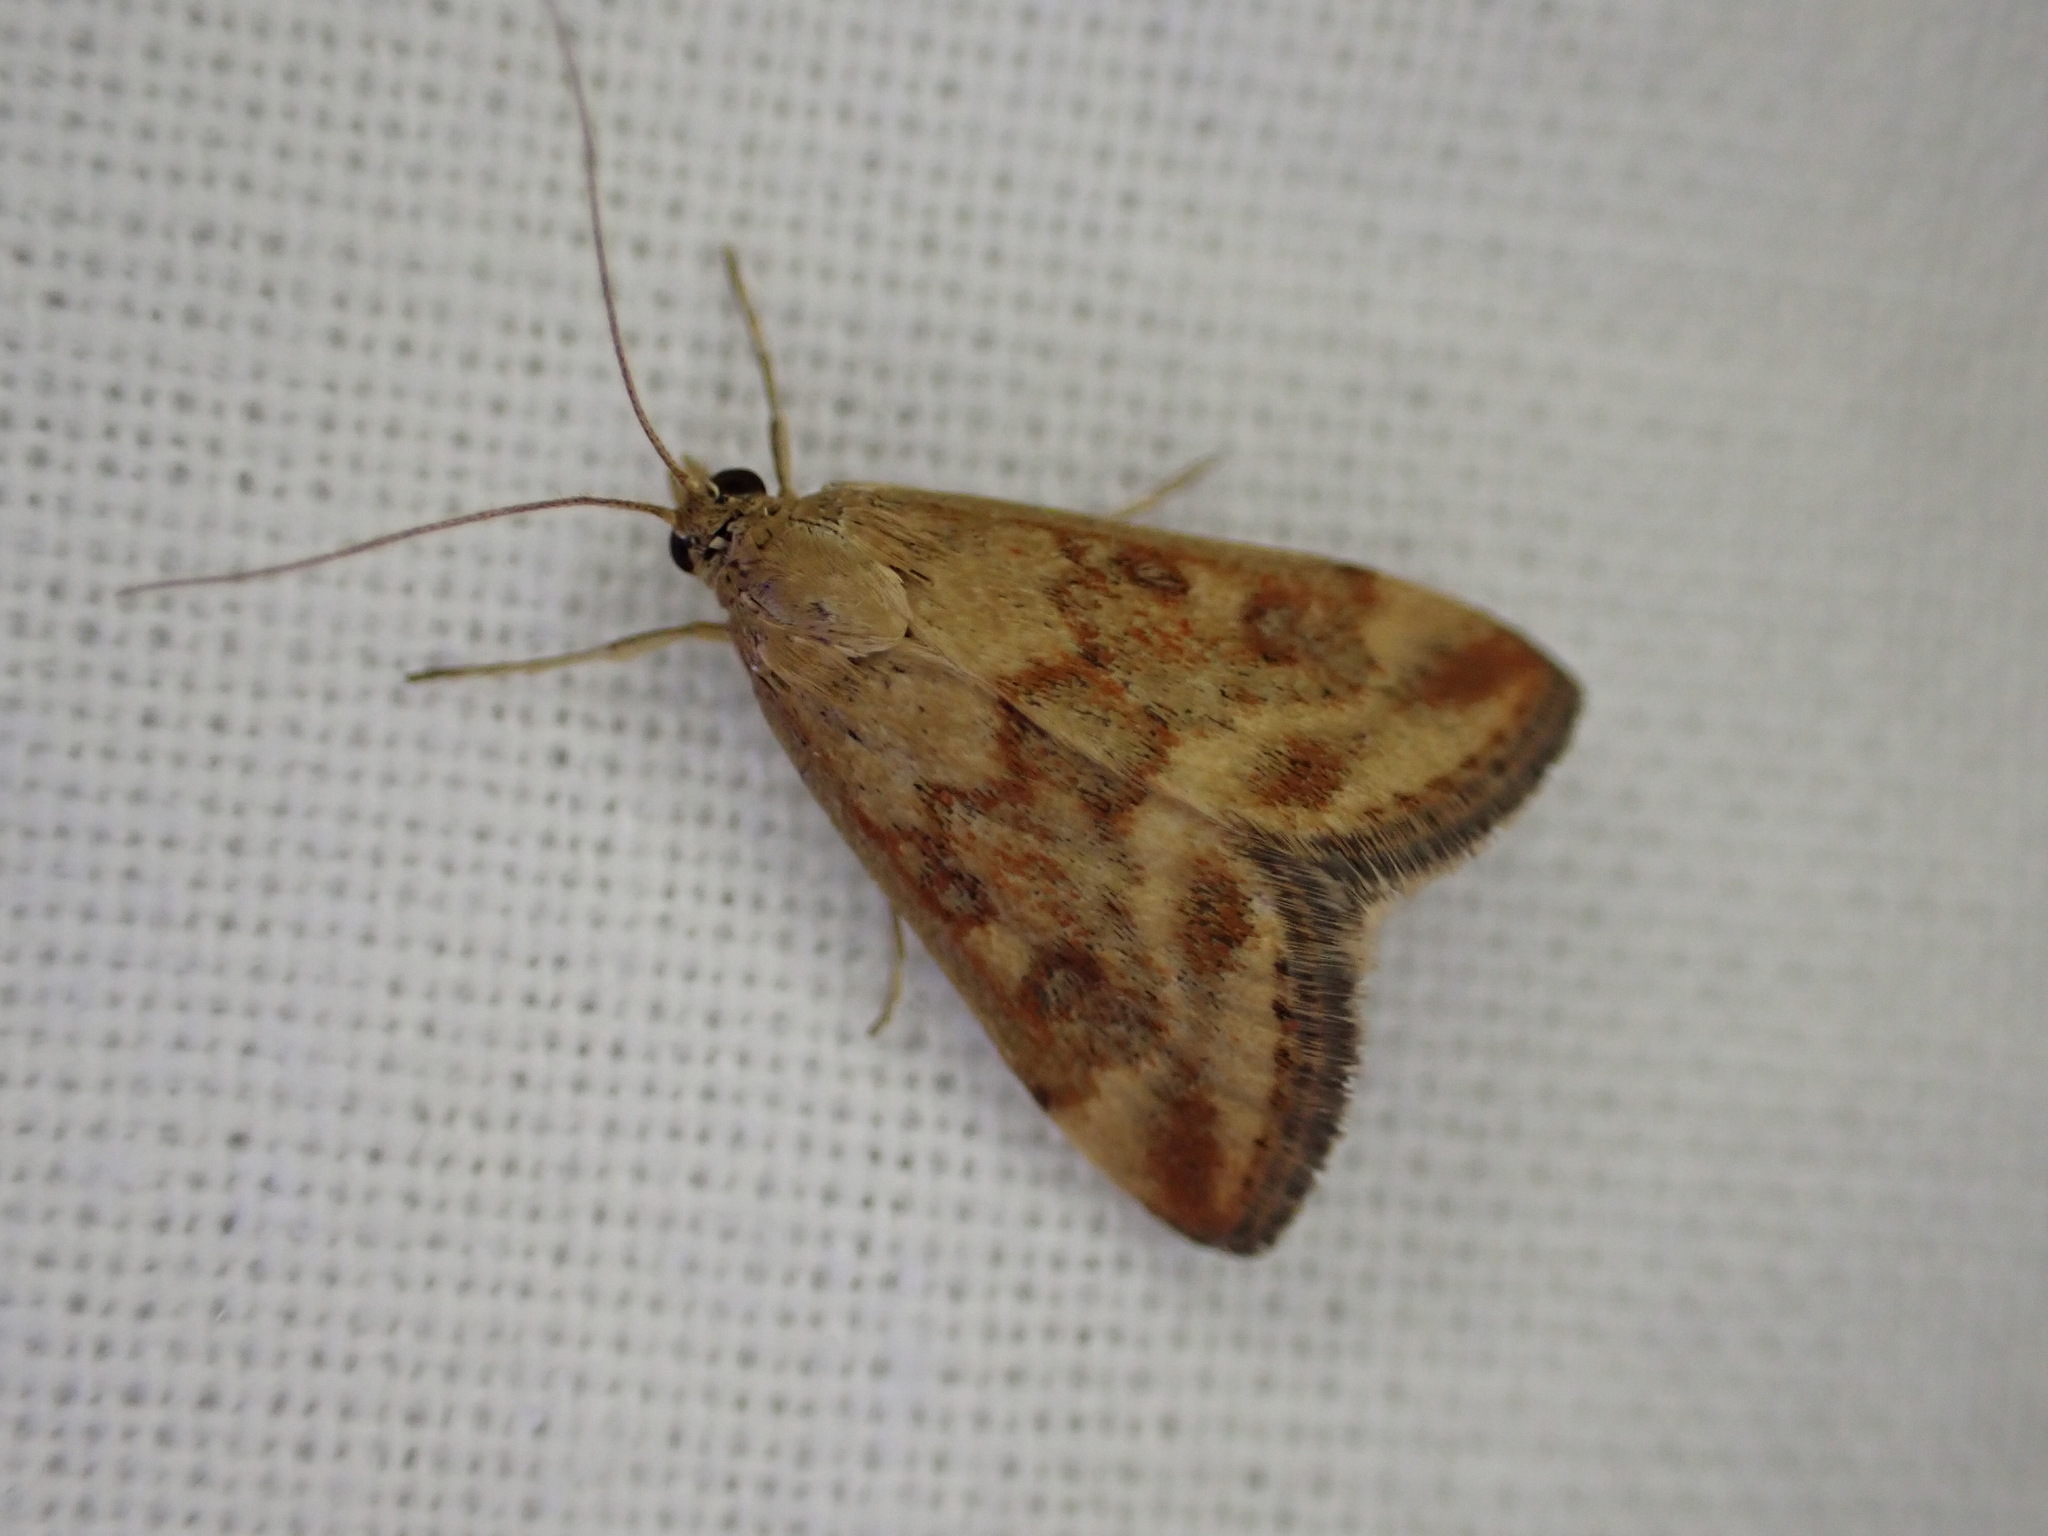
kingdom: Animalia
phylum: Arthropoda
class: Insecta
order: Lepidoptera
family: Crambidae
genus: Pyrausta
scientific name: Pyrausta despicata
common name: Straw-barred pearl
